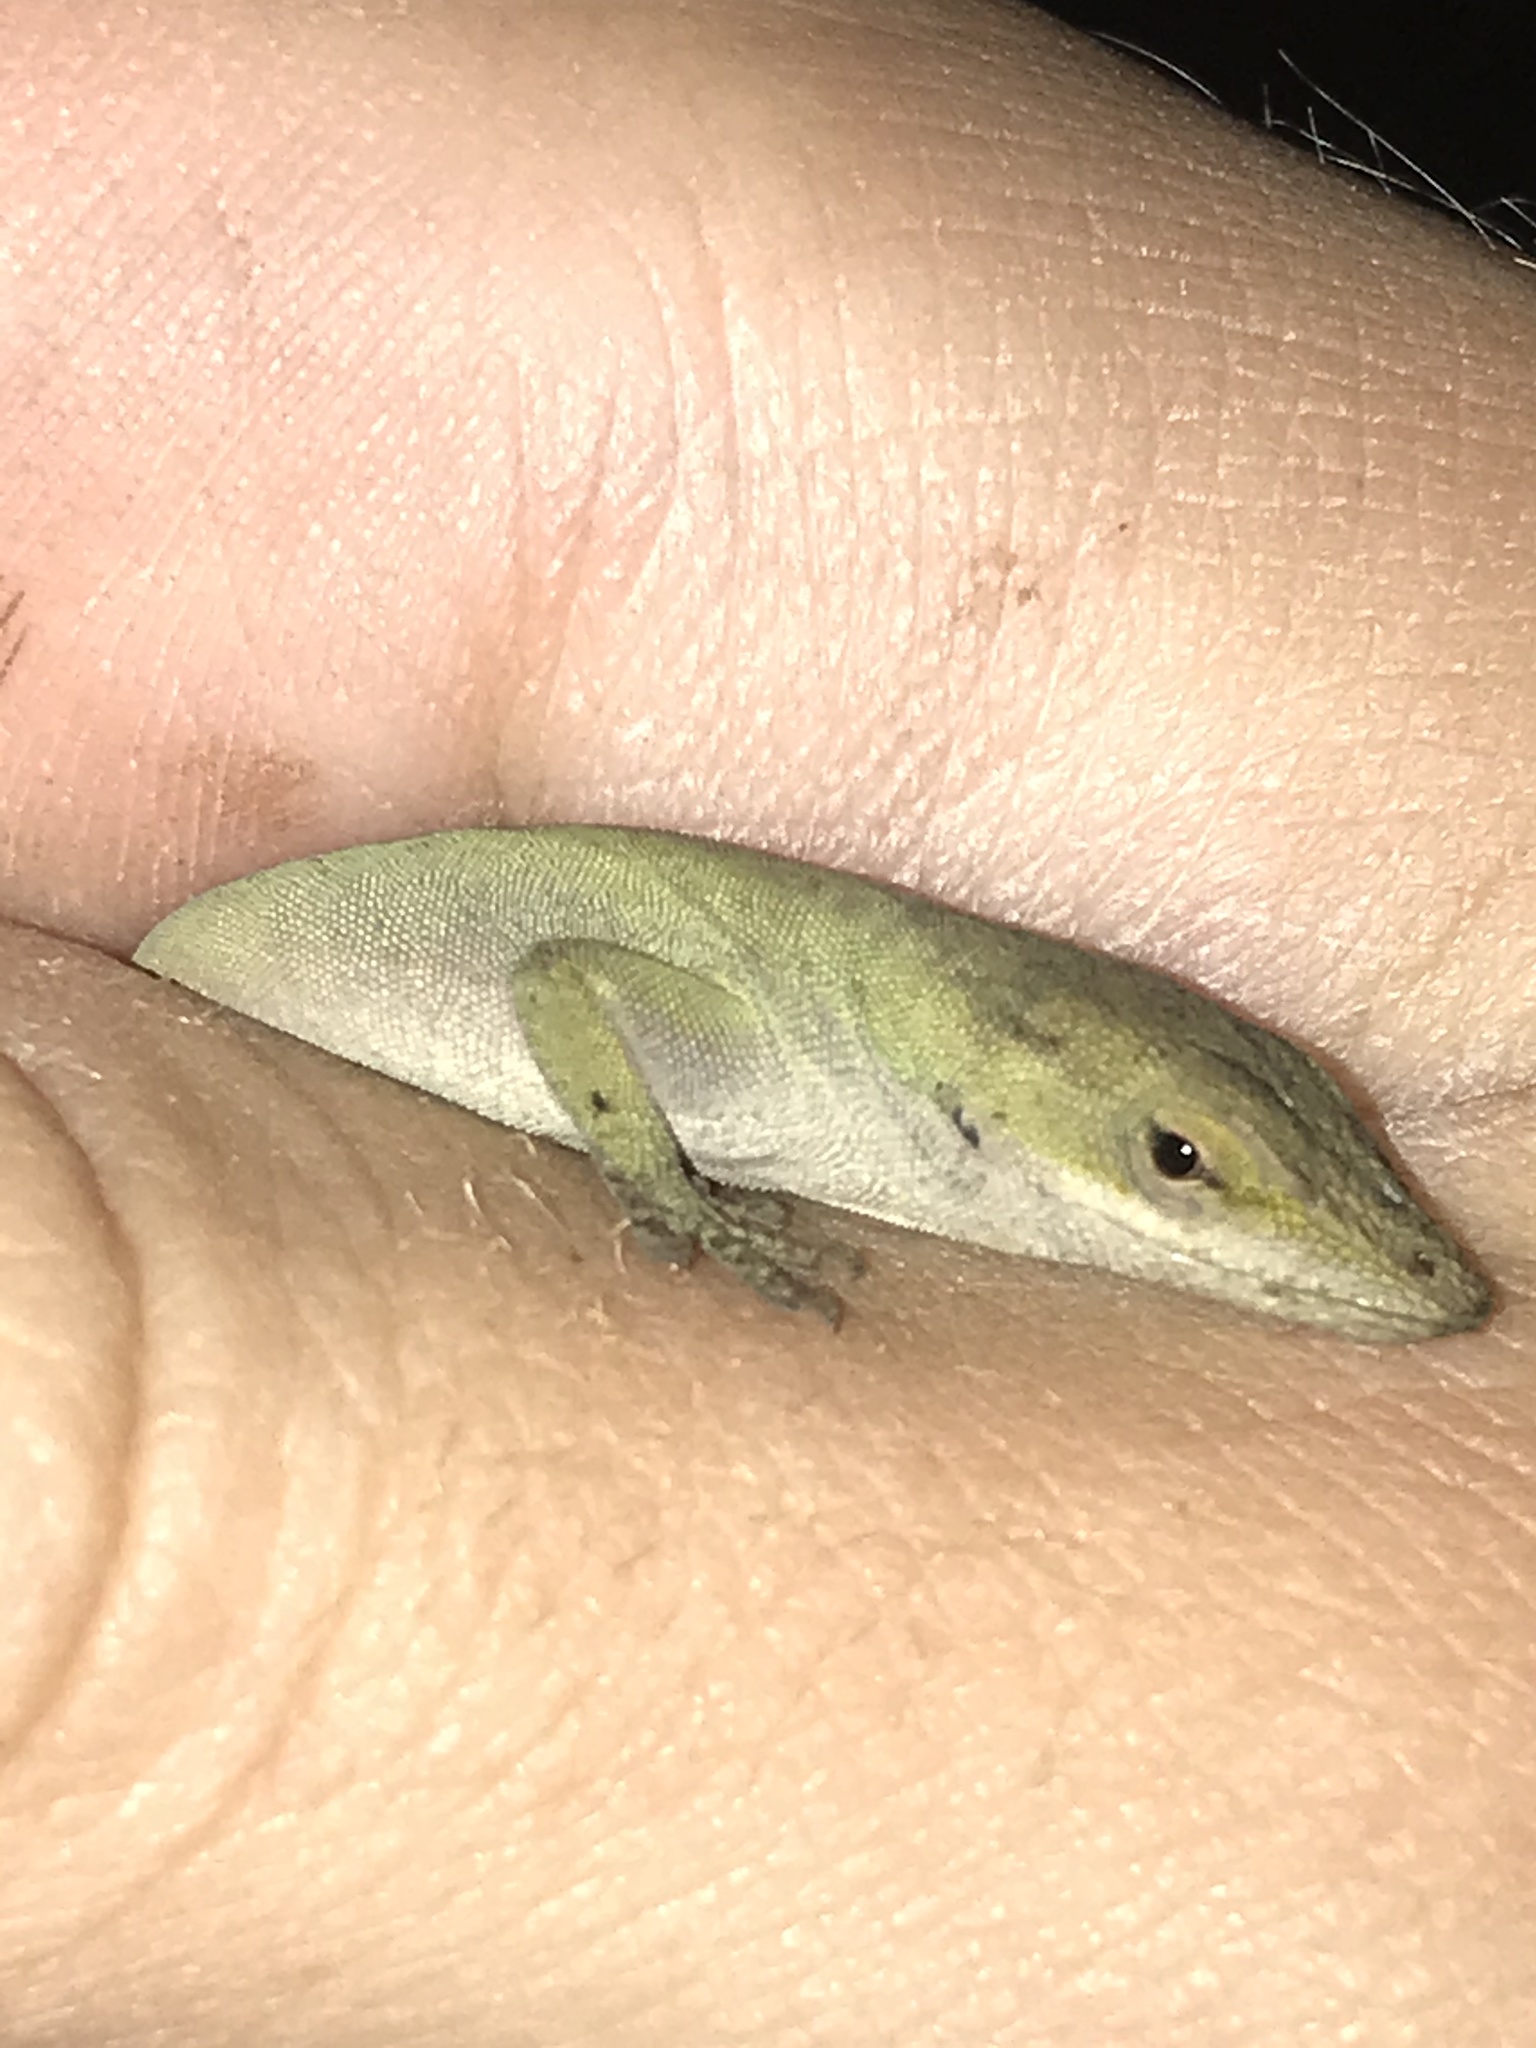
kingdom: Animalia
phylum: Chordata
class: Squamata
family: Dactyloidae
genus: Anolis
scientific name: Anolis carolinensis
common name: Green anole
